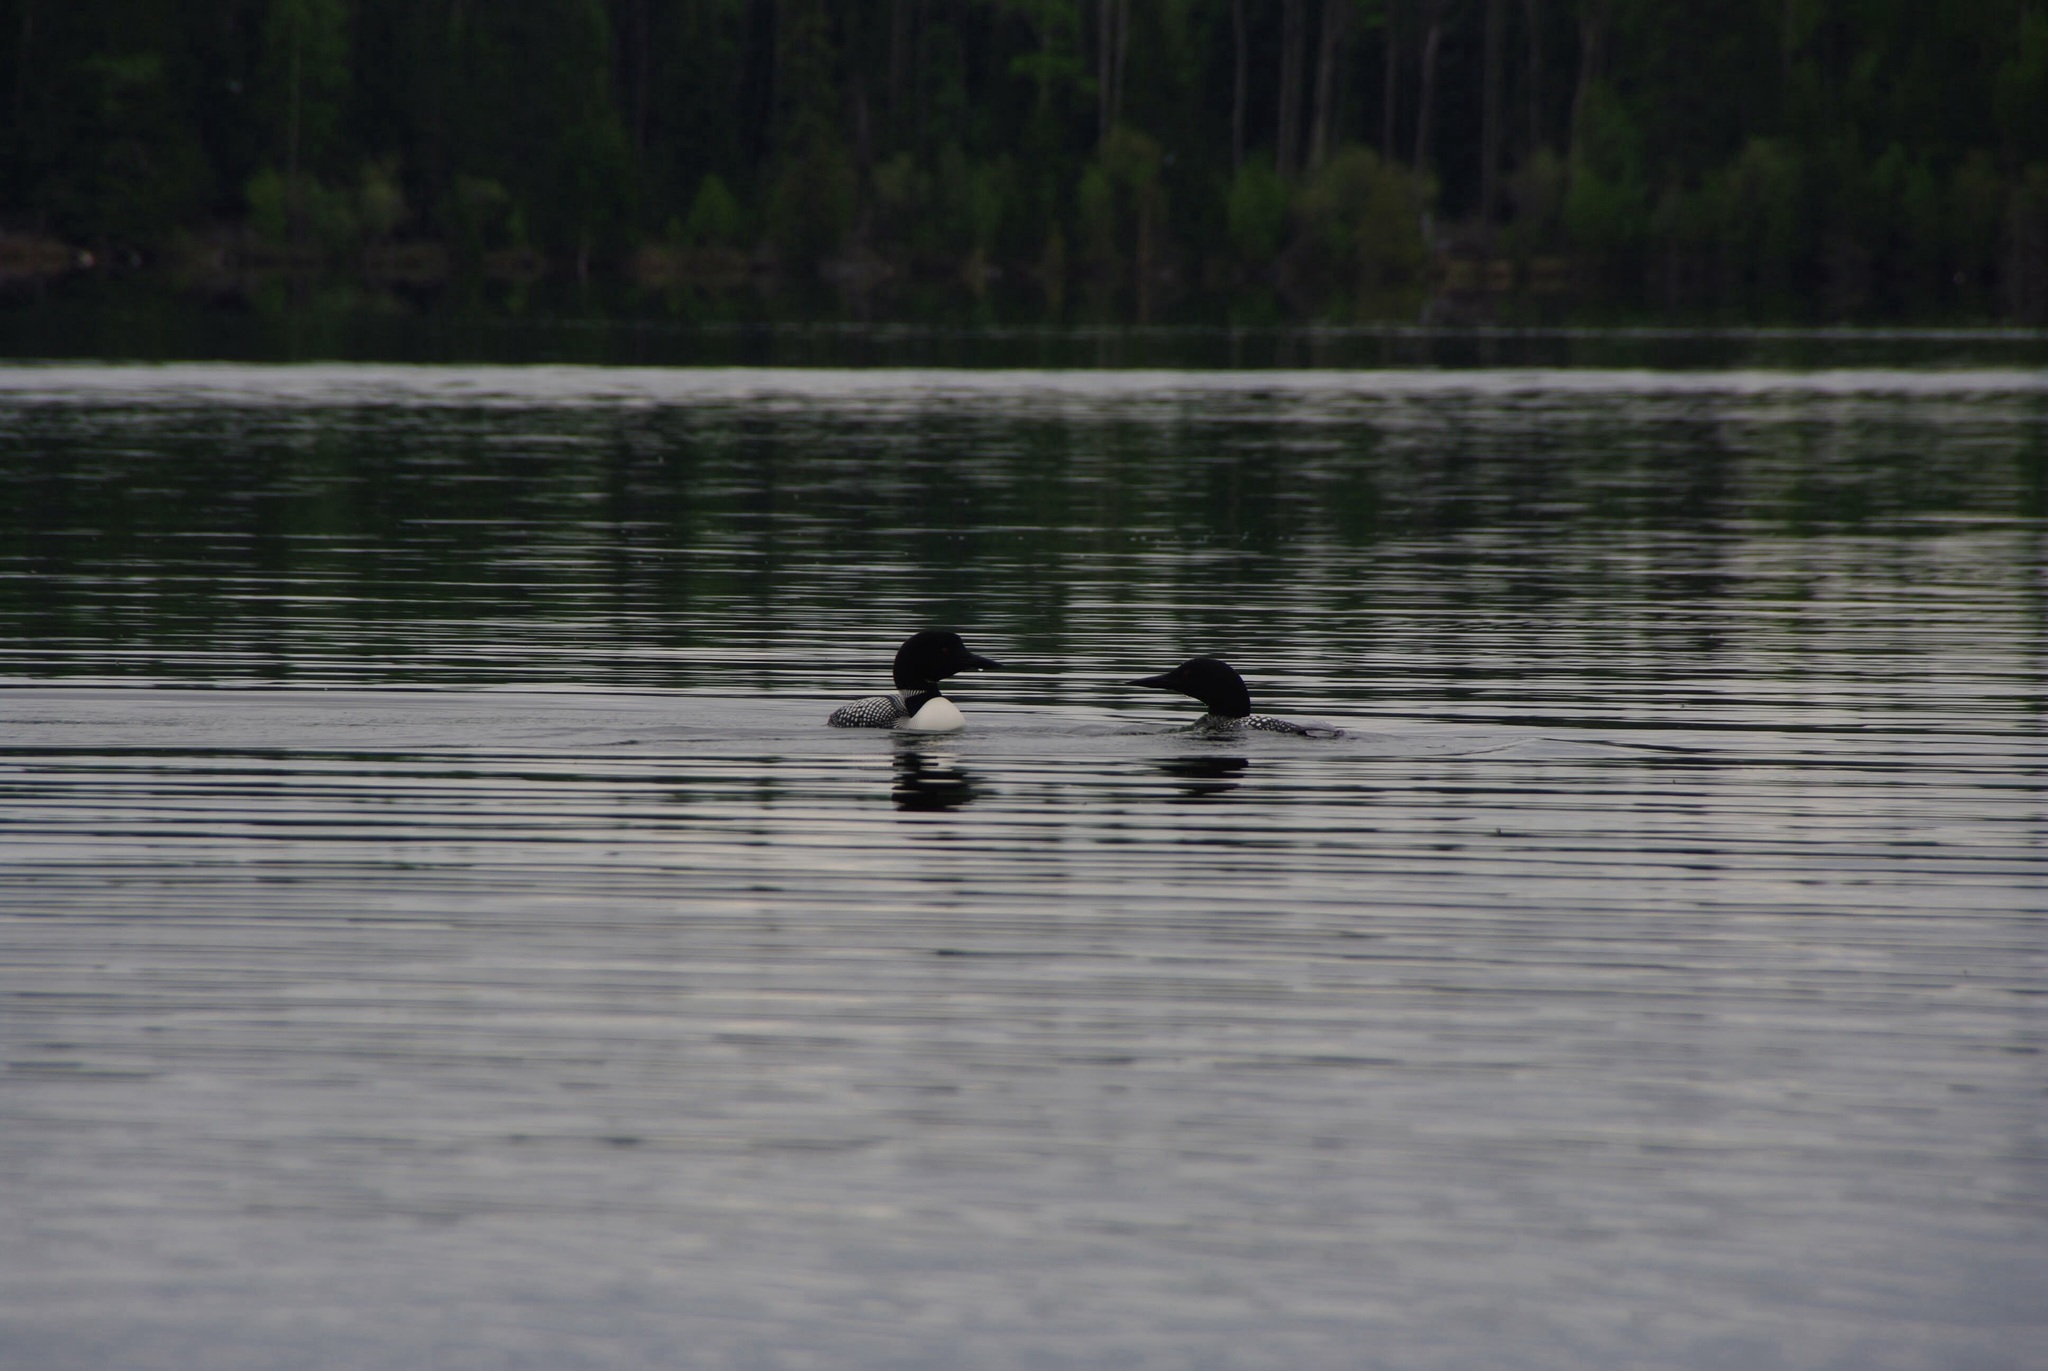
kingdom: Animalia
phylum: Chordata
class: Aves
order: Gaviiformes
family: Gaviidae
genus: Gavia
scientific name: Gavia immer
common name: Common loon
